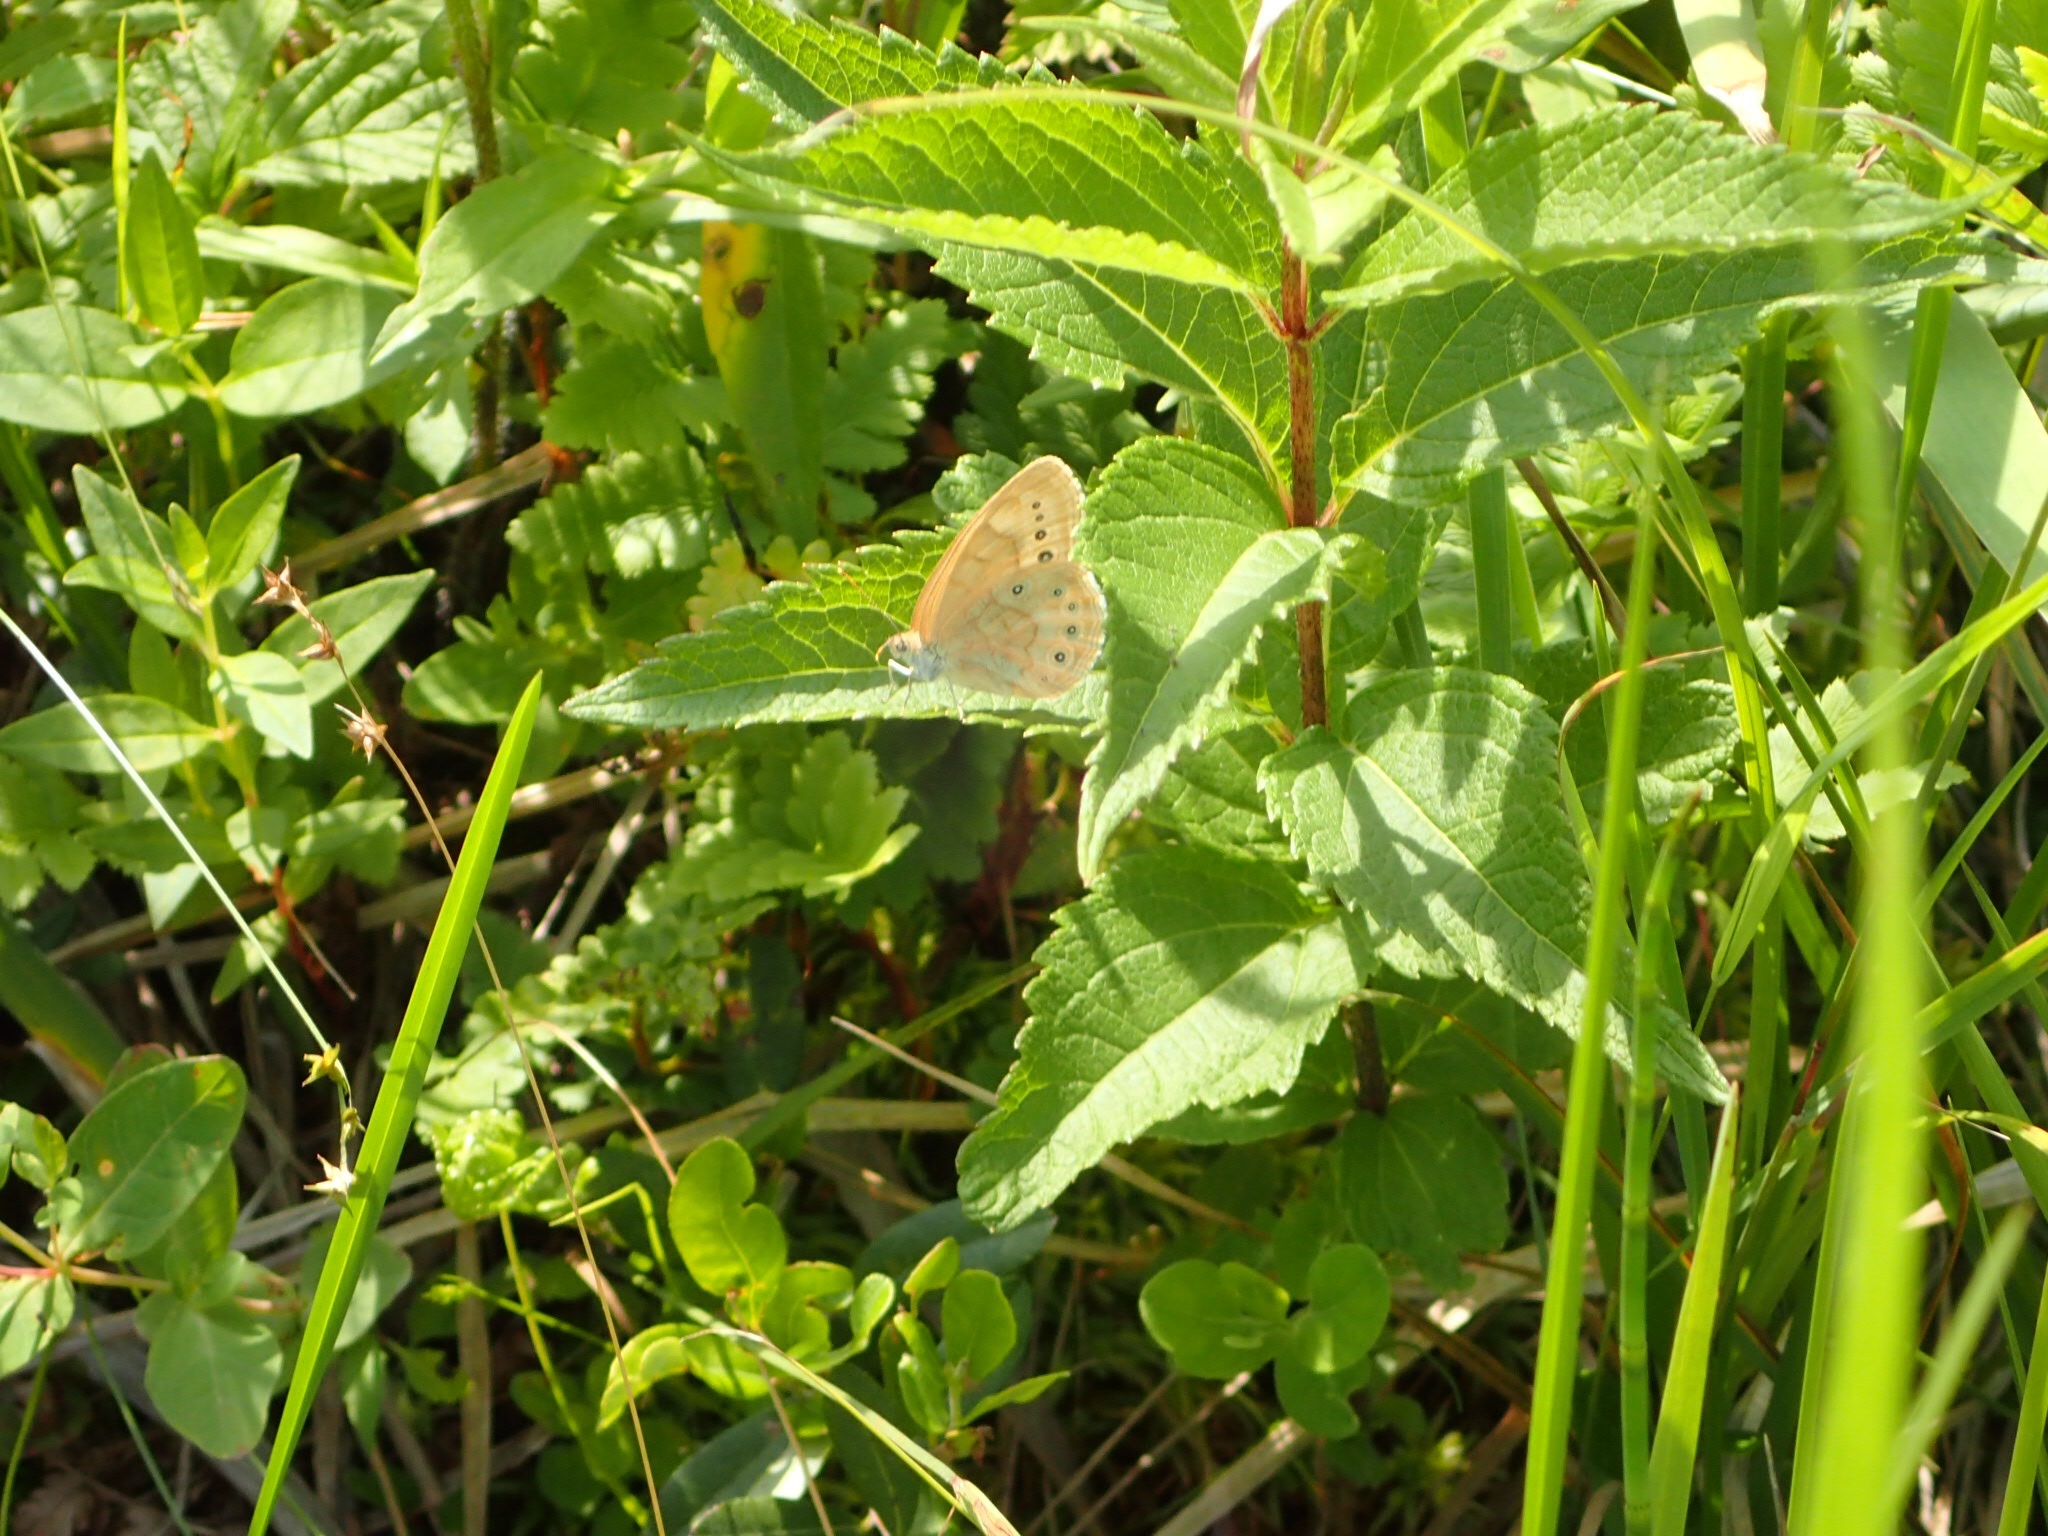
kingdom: Animalia
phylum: Arthropoda
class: Insecta
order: Lepidoptera
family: Nymphalidae
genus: Lethe
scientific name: Lethe eurydice
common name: Eyed brown
